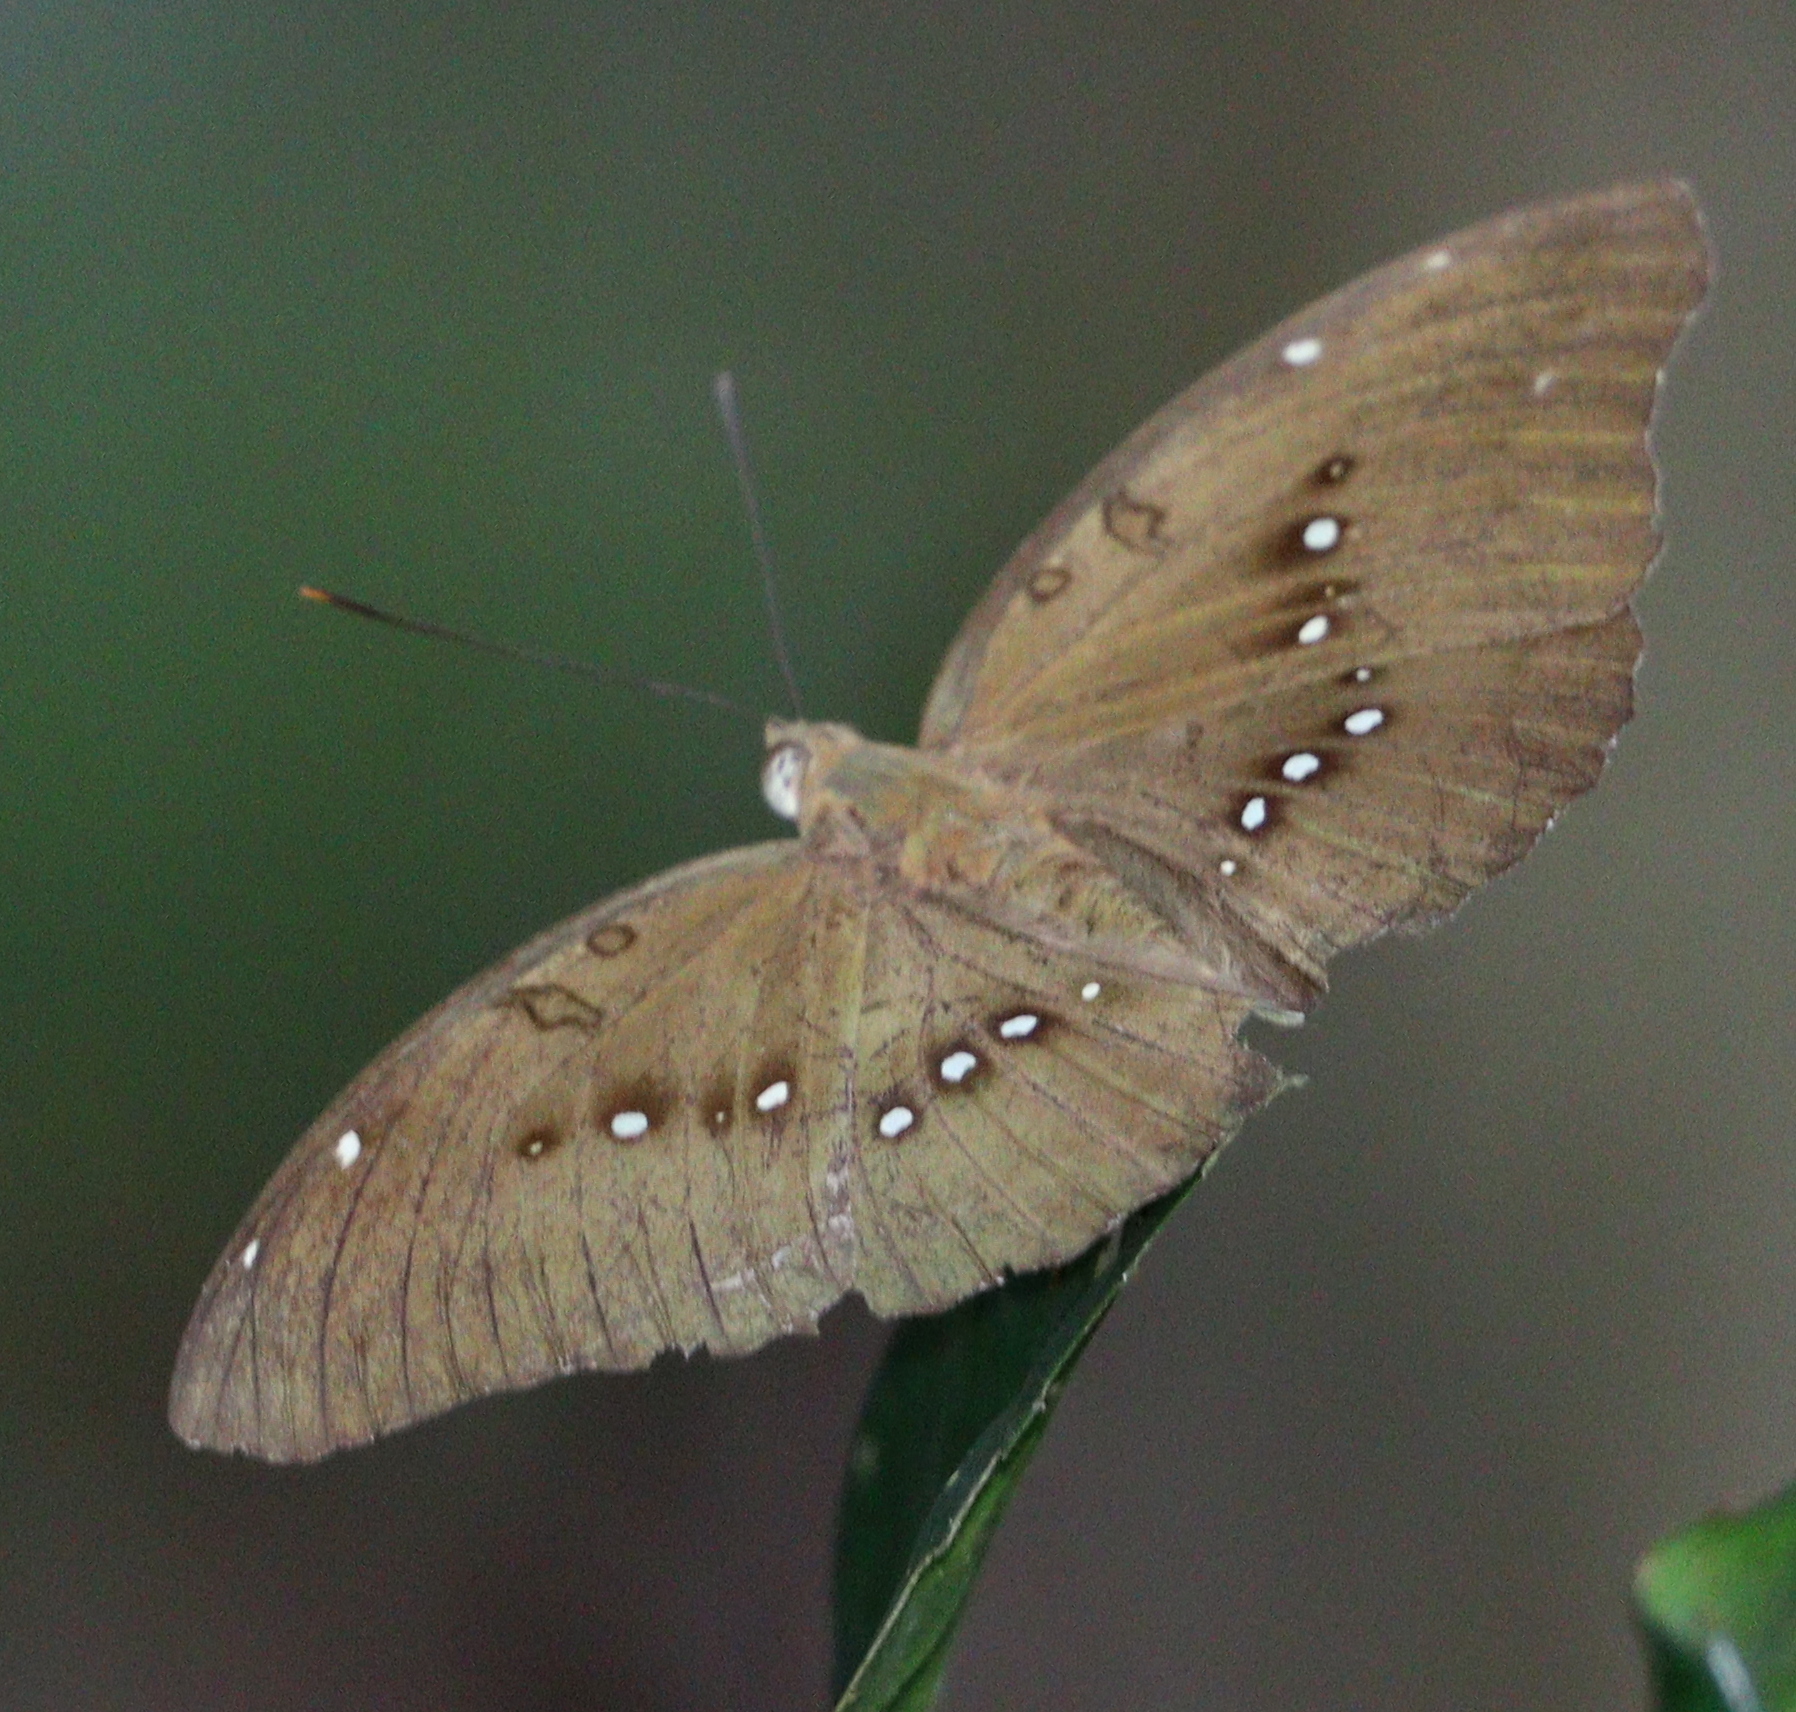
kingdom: Animalia
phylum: Arthropoda
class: Insecta
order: Lepidoptera
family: Nymphalidae
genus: Euthalia
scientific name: Euthalia Bassarona dunya
